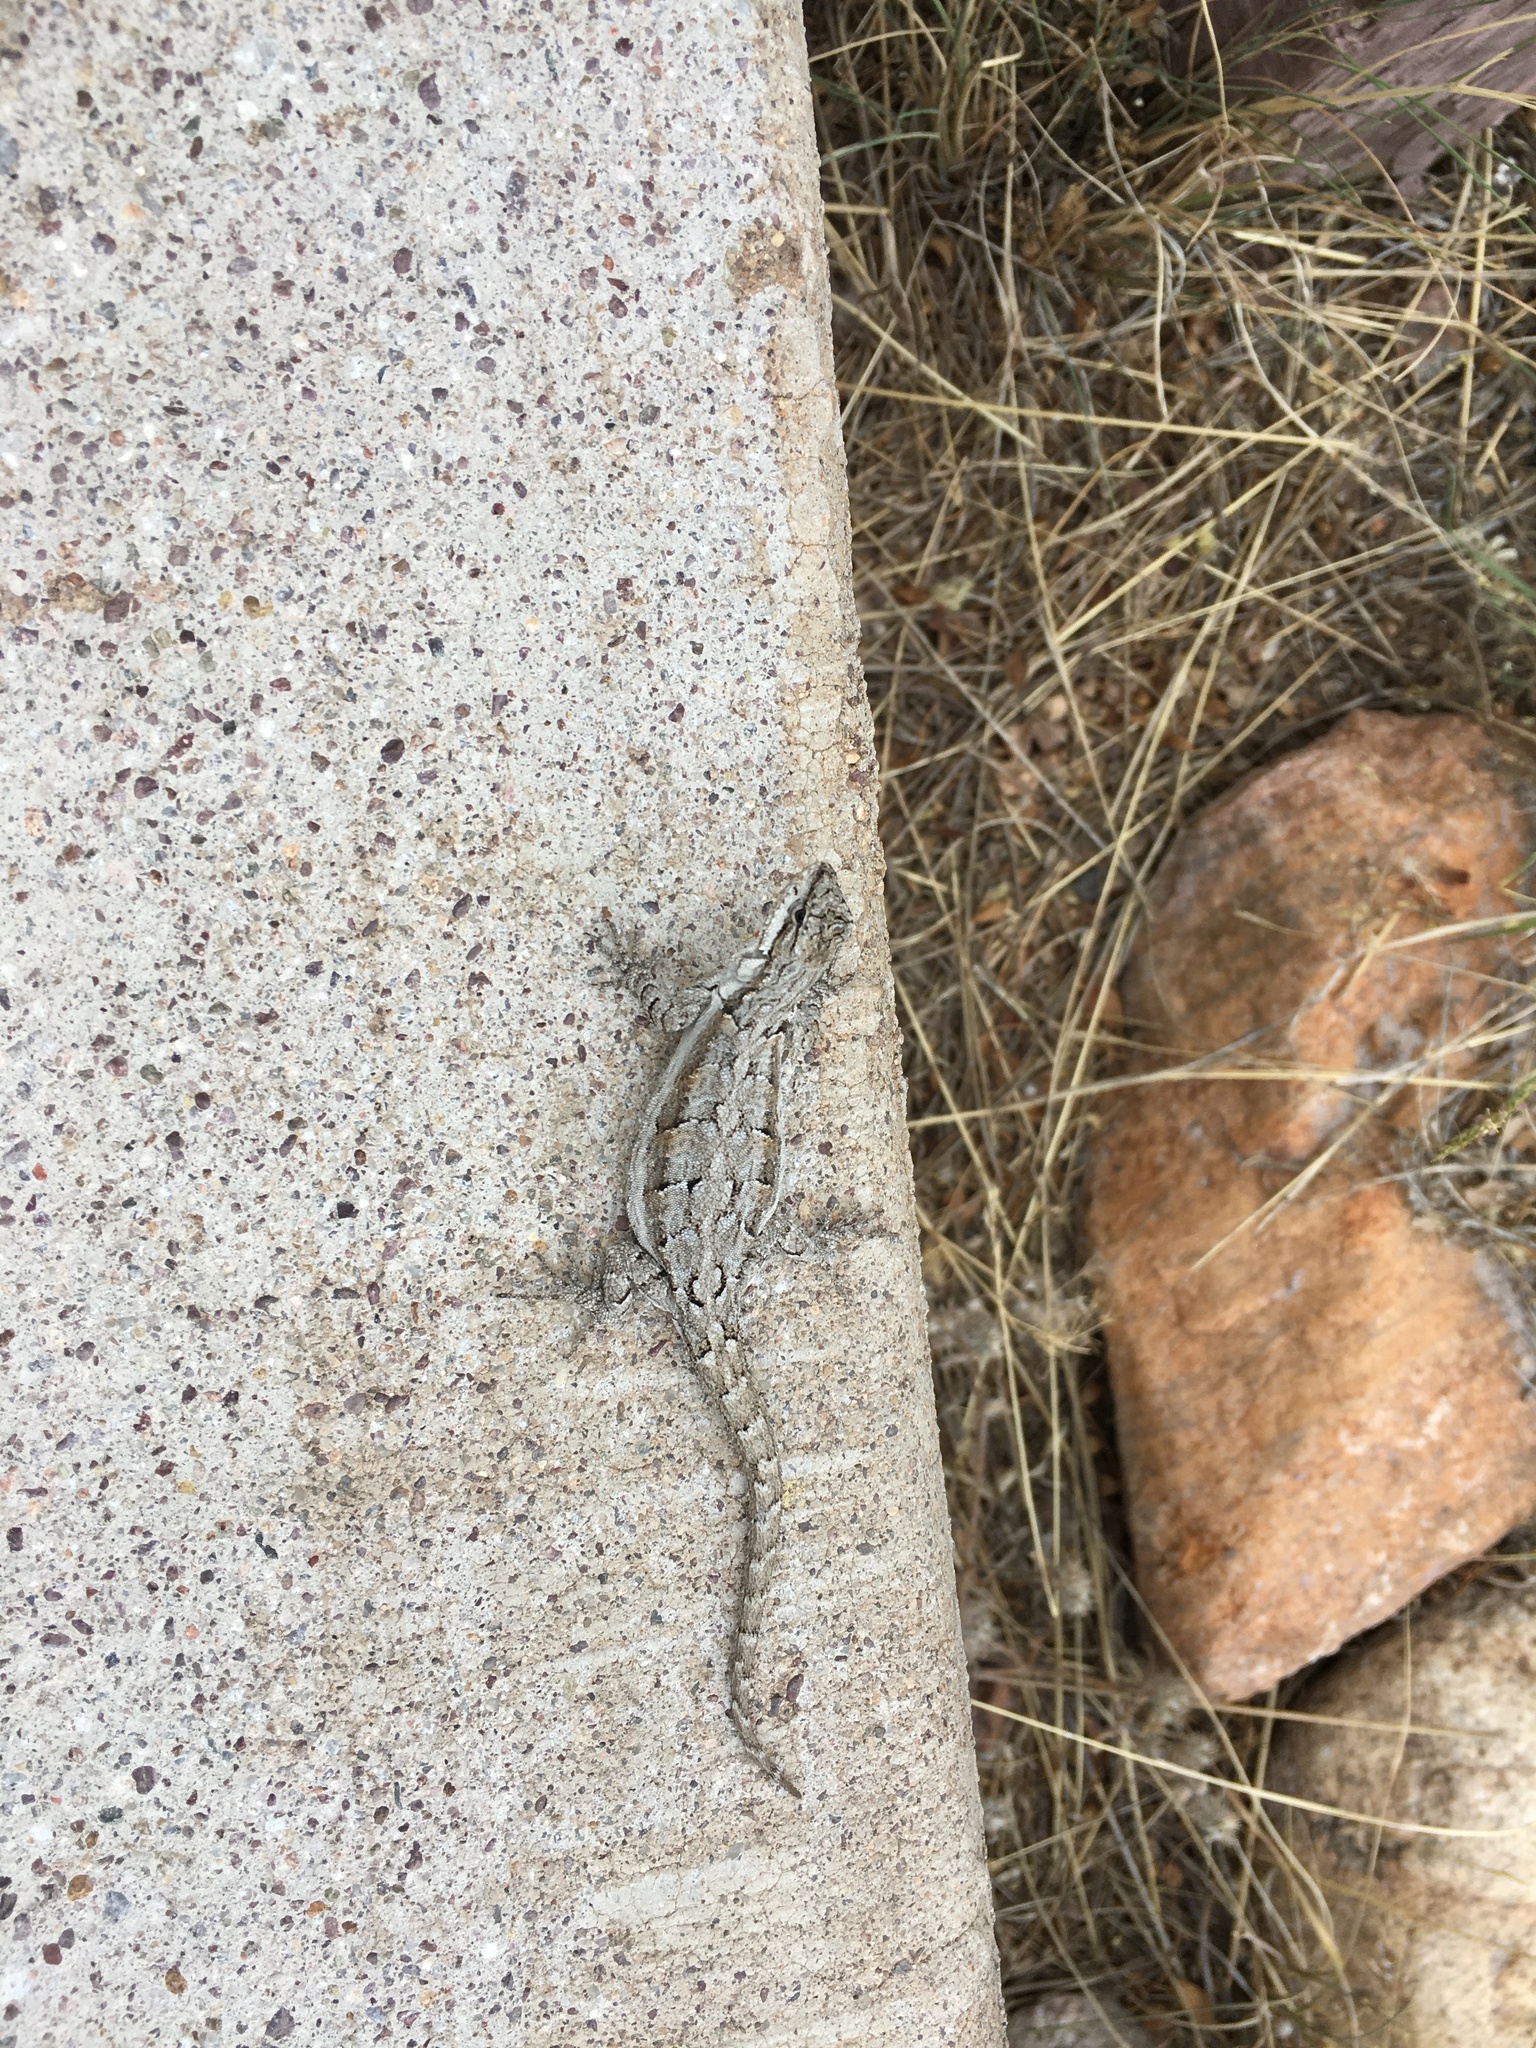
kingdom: Animalia
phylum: Chordata
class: Squamata
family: Phrynosomatidae
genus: Urosaurus
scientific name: Urosaurus ornatus
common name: Ornate tree lizard
